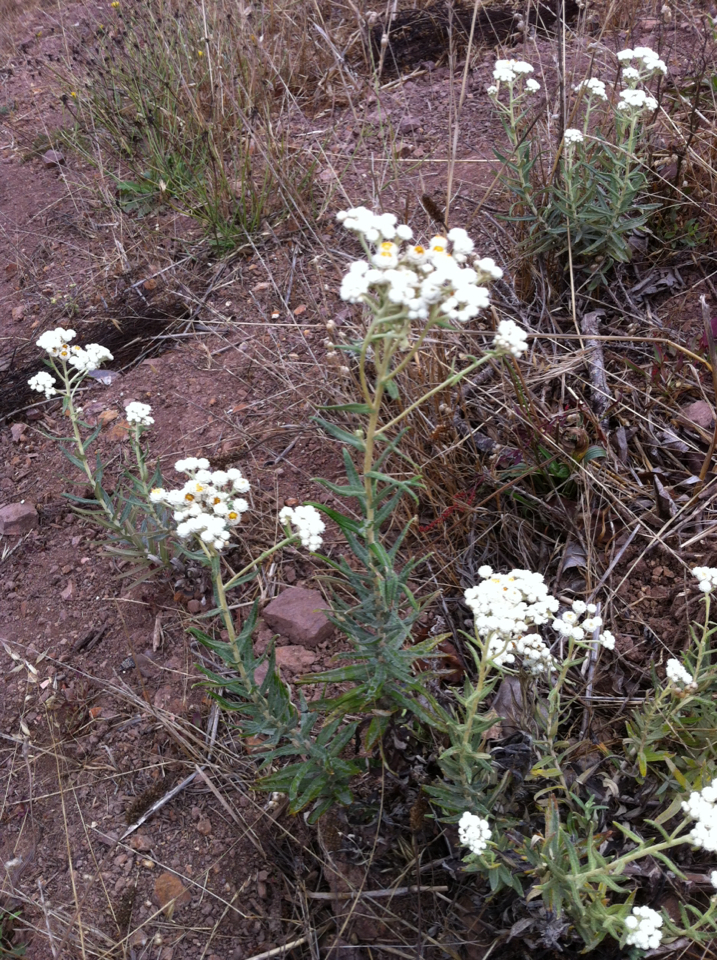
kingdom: Plantae
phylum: Tracheophyta
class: Magnoliopsida
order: Asterales
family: Asteraceae
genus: Anaphalis
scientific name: Anaphalis margaritacea
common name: Pearly everlasting
